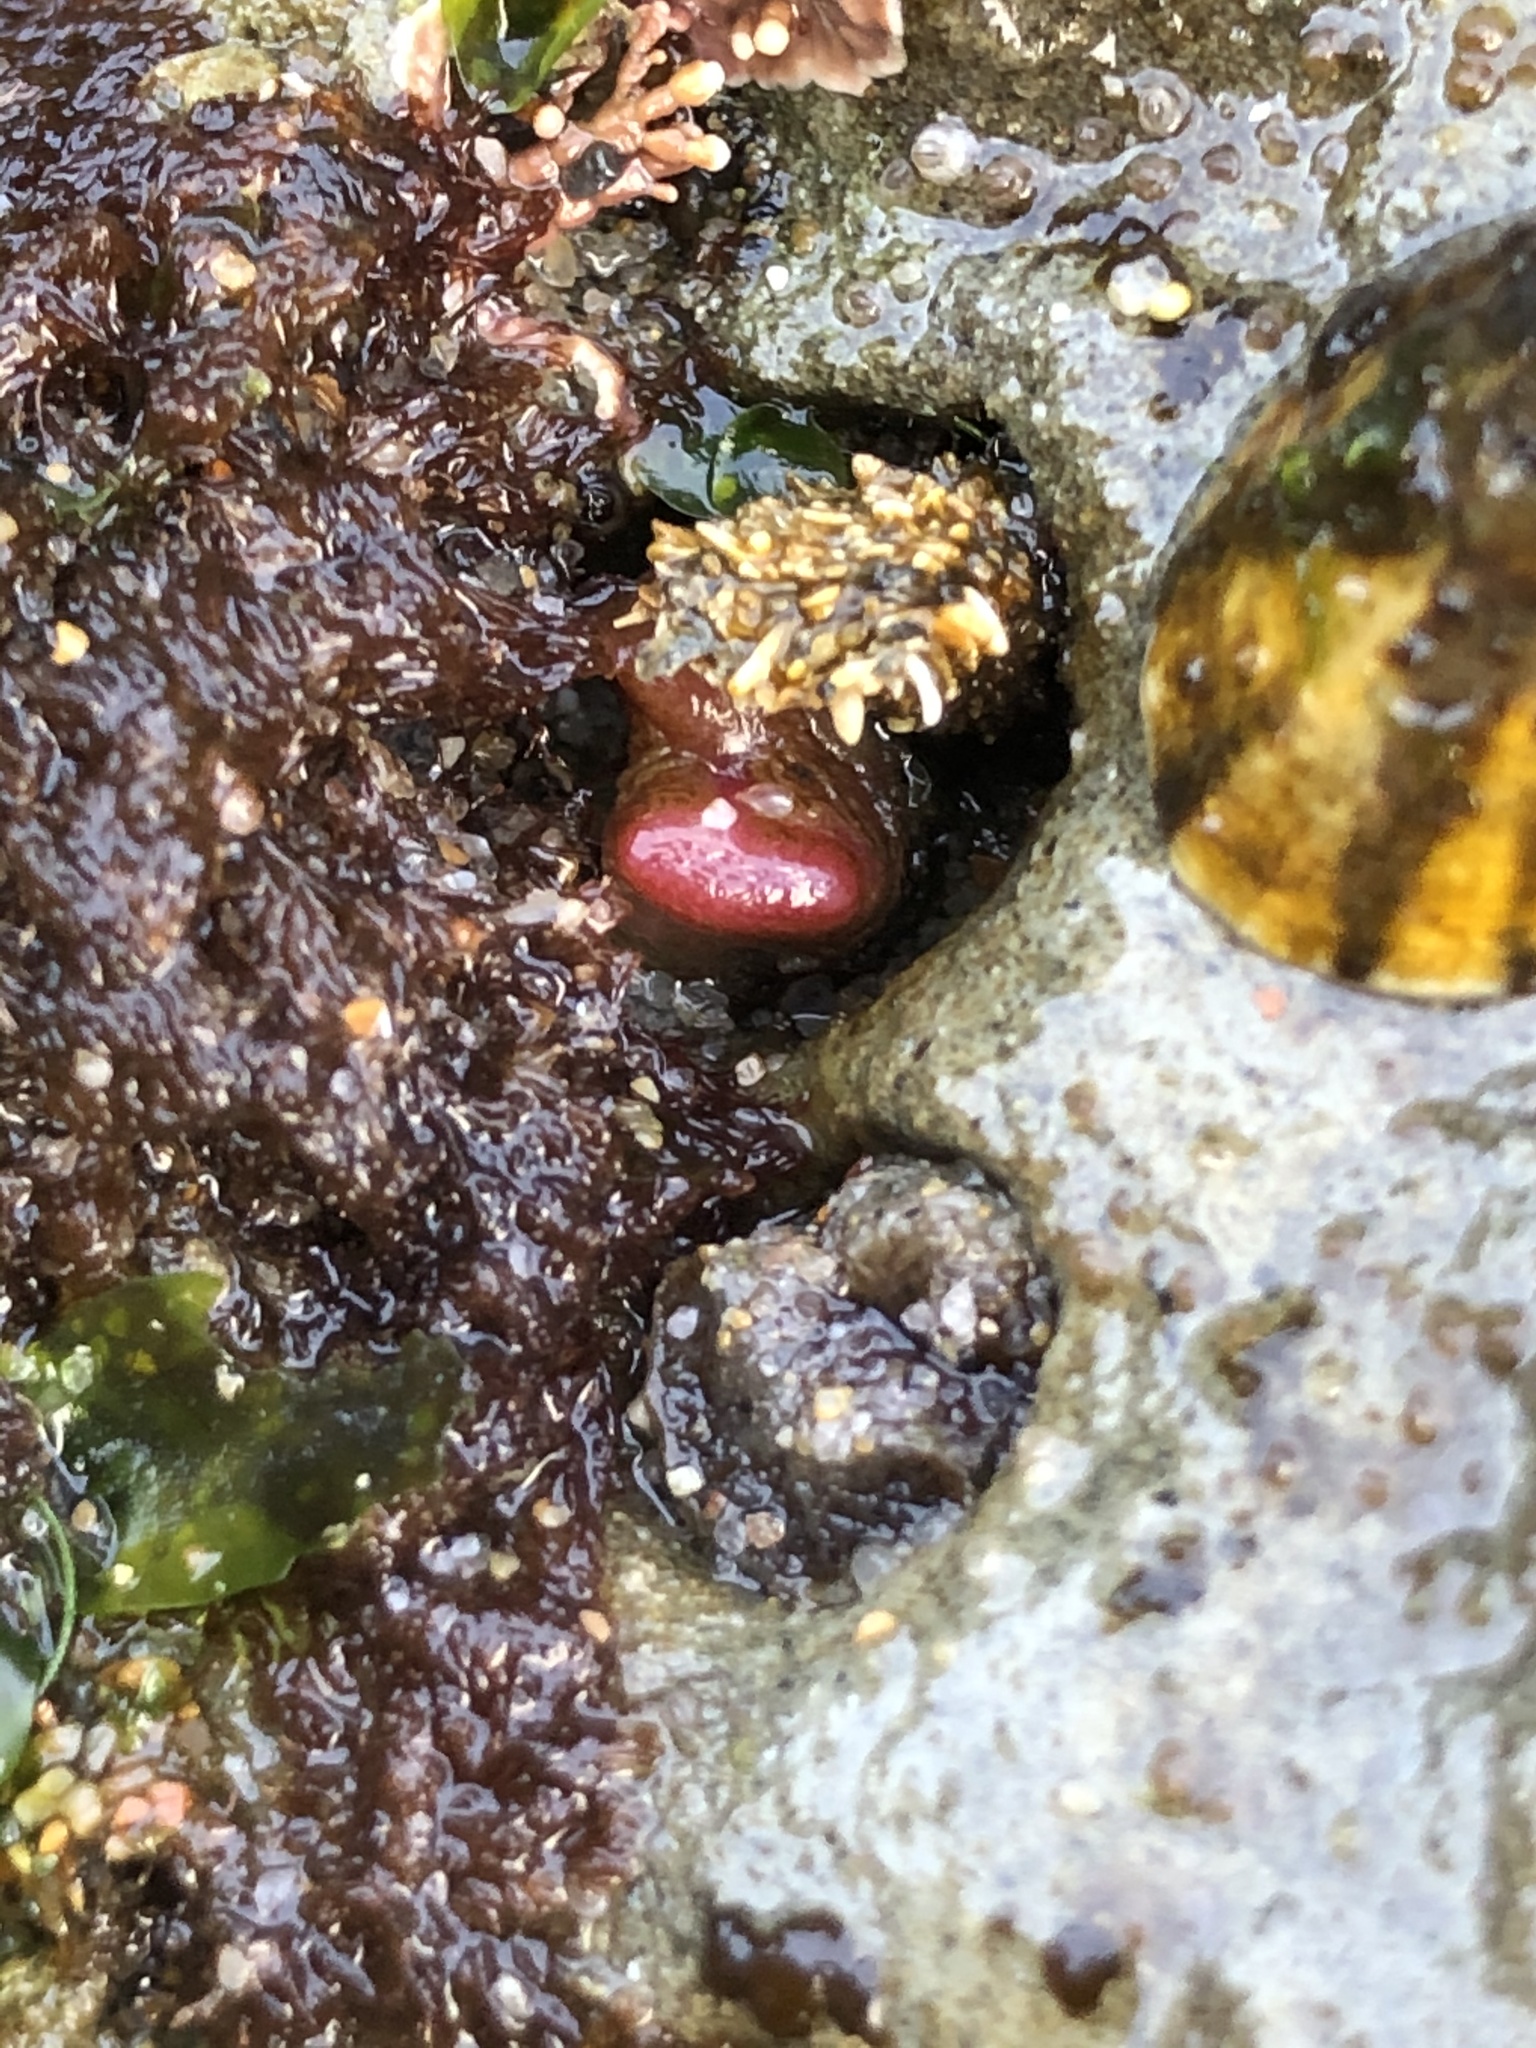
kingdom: Animalia
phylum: Mollusca
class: Bivalvia
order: Adapedonta
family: Hiatellidae
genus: Hiatella
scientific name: Hiatella arctica
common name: Arctic hiatella
